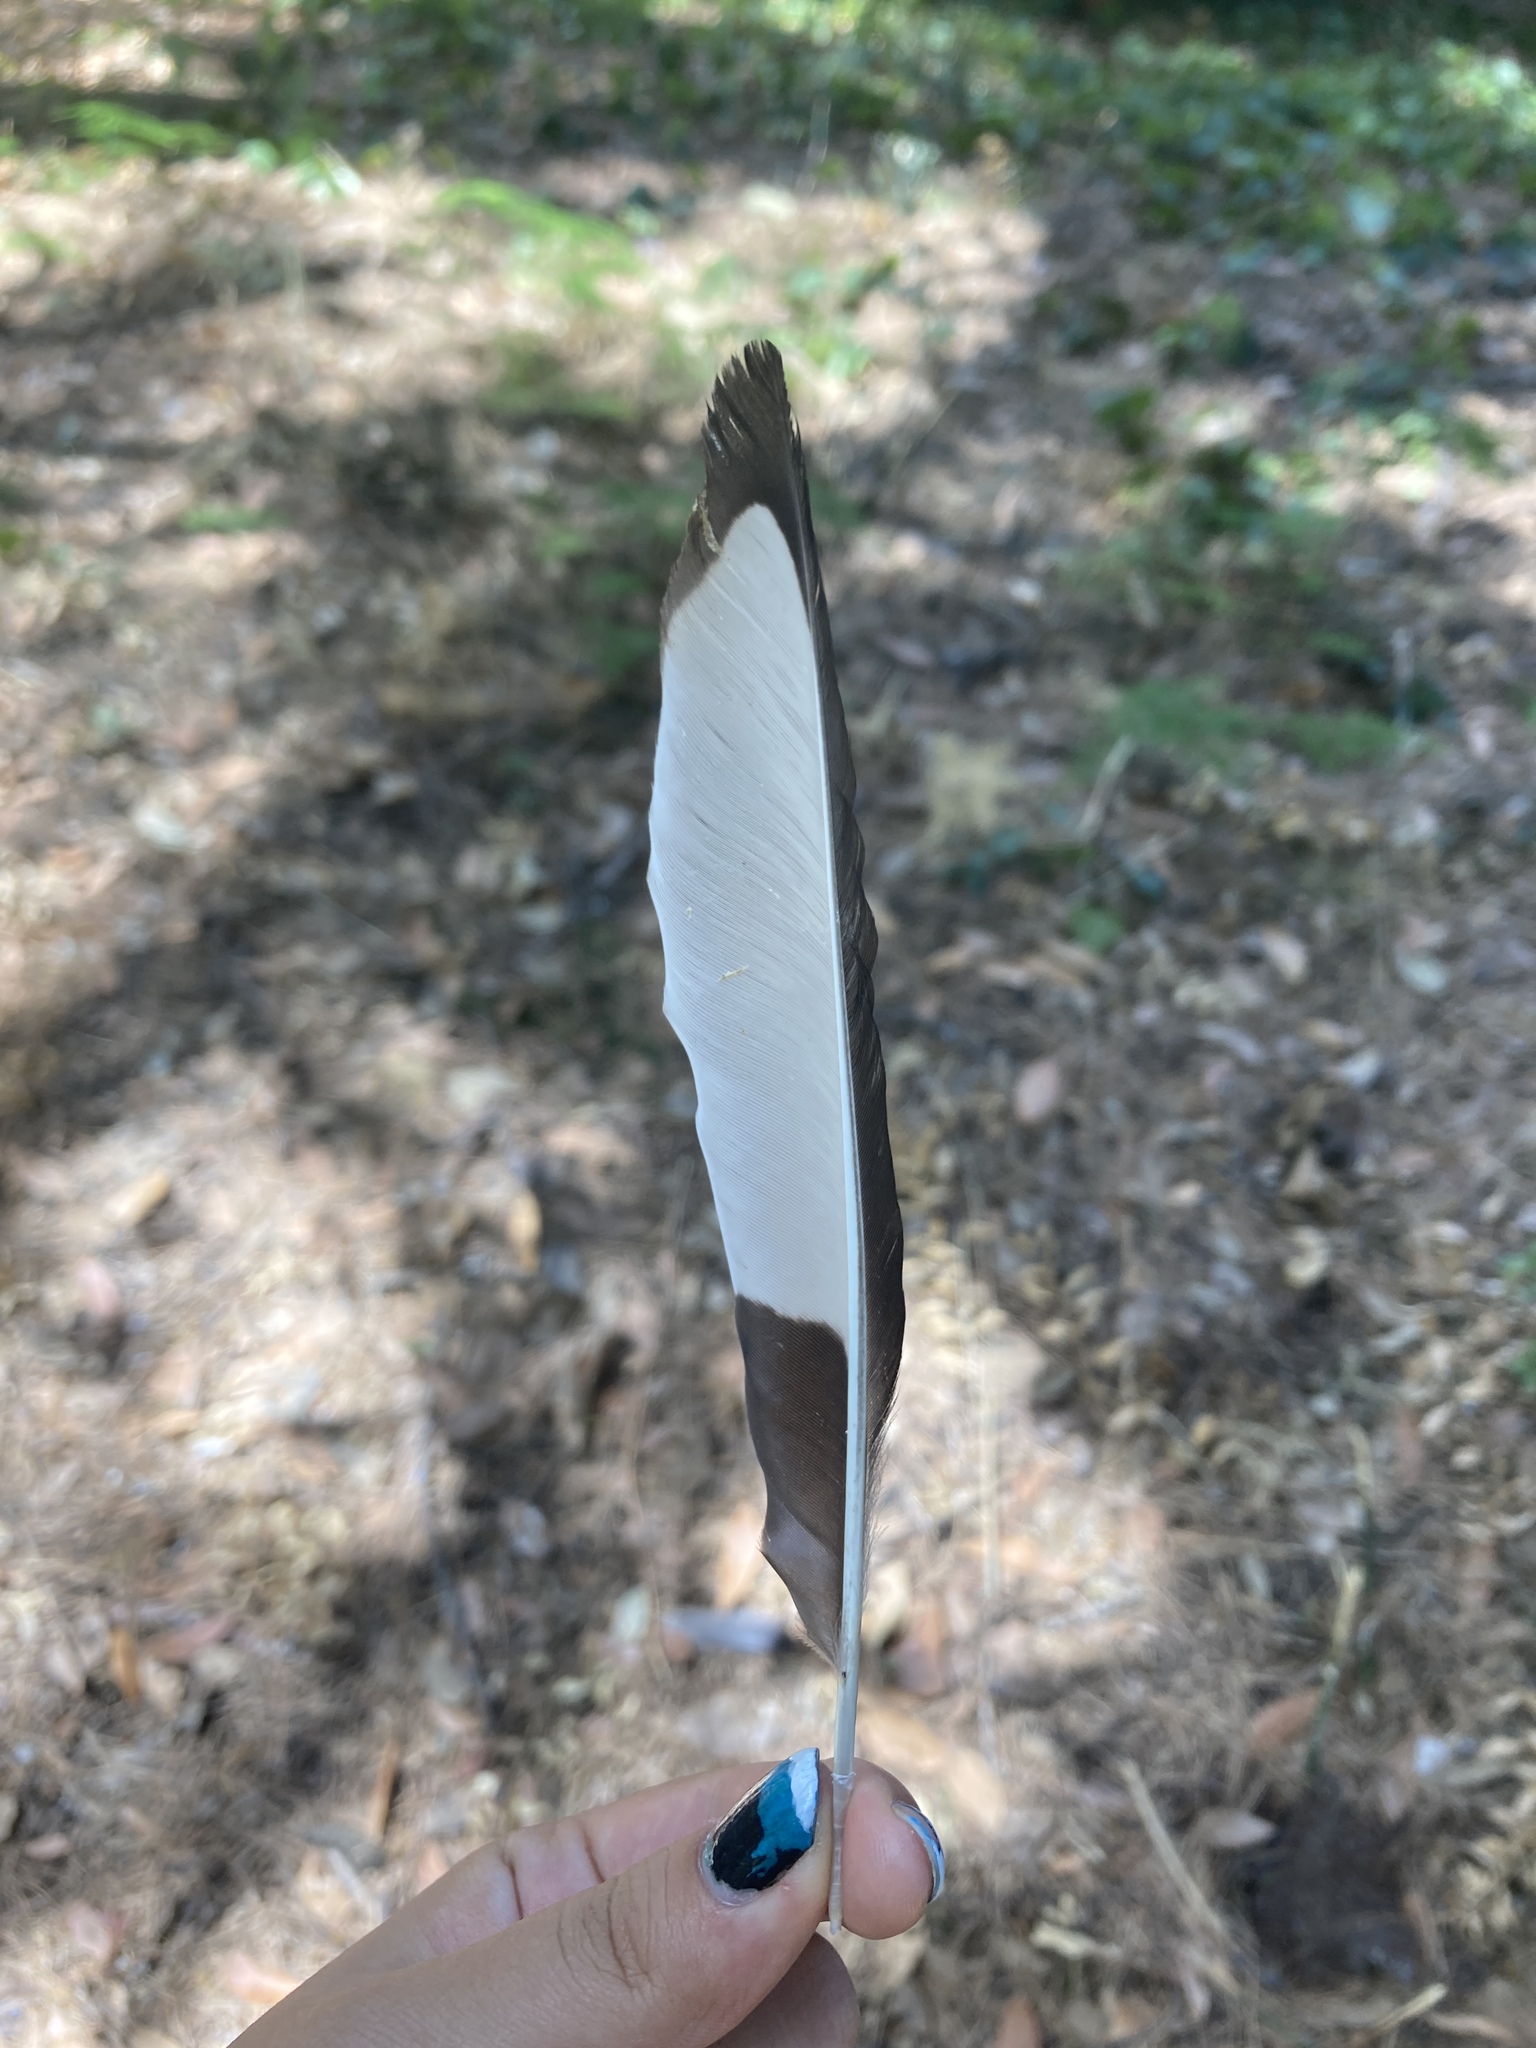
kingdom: Animalia
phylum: Chordata
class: Aves
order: Passeriformes
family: Corvidae
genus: Pica
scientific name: Pica pica
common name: Eurasian magpie
